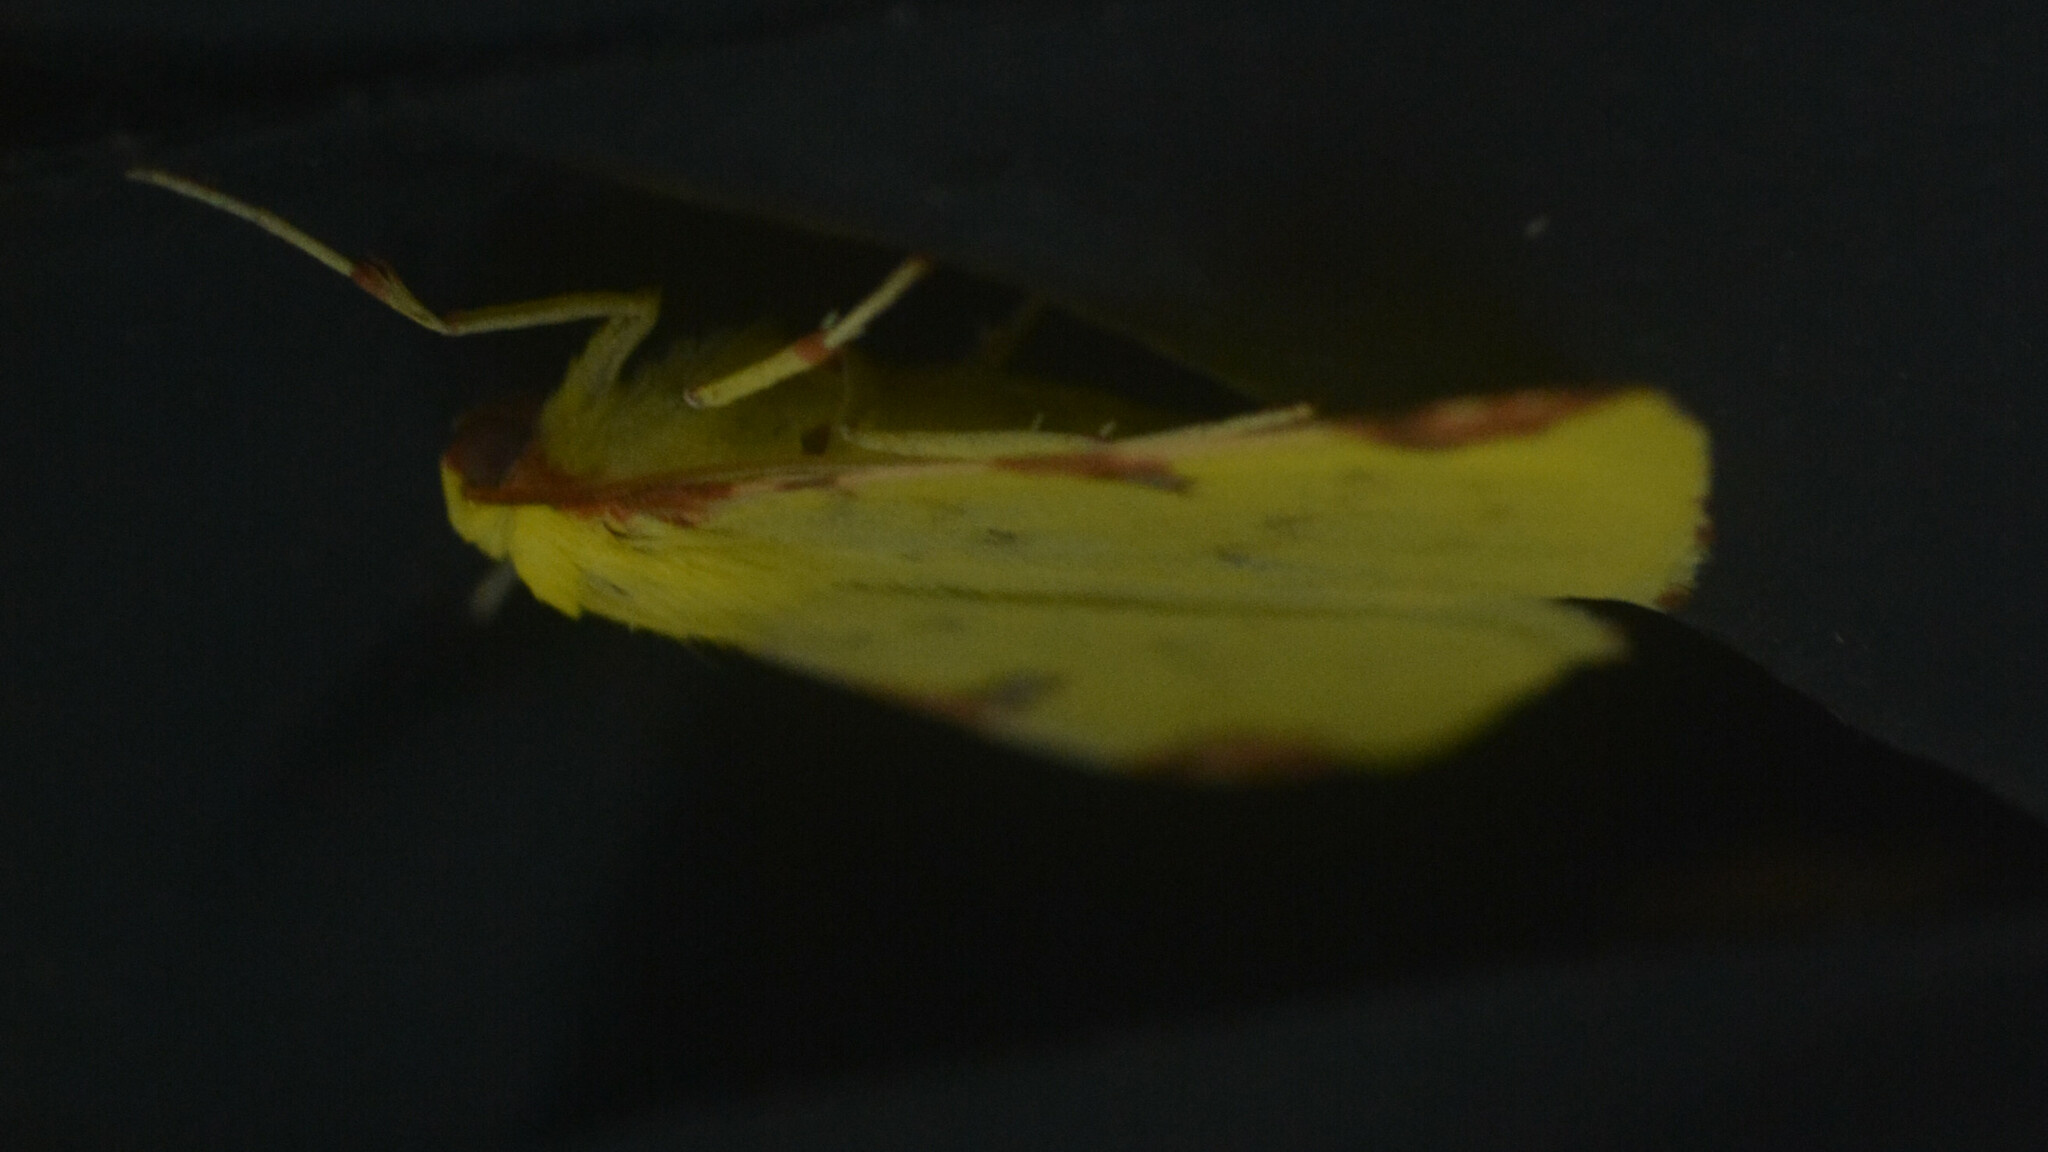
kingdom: Animalia
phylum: Arthropoda
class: Insecta
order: Lepidoptera
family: Geometridae
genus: Opisthograptis
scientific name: Opisthograptis luteolata
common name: Brimstone moth
